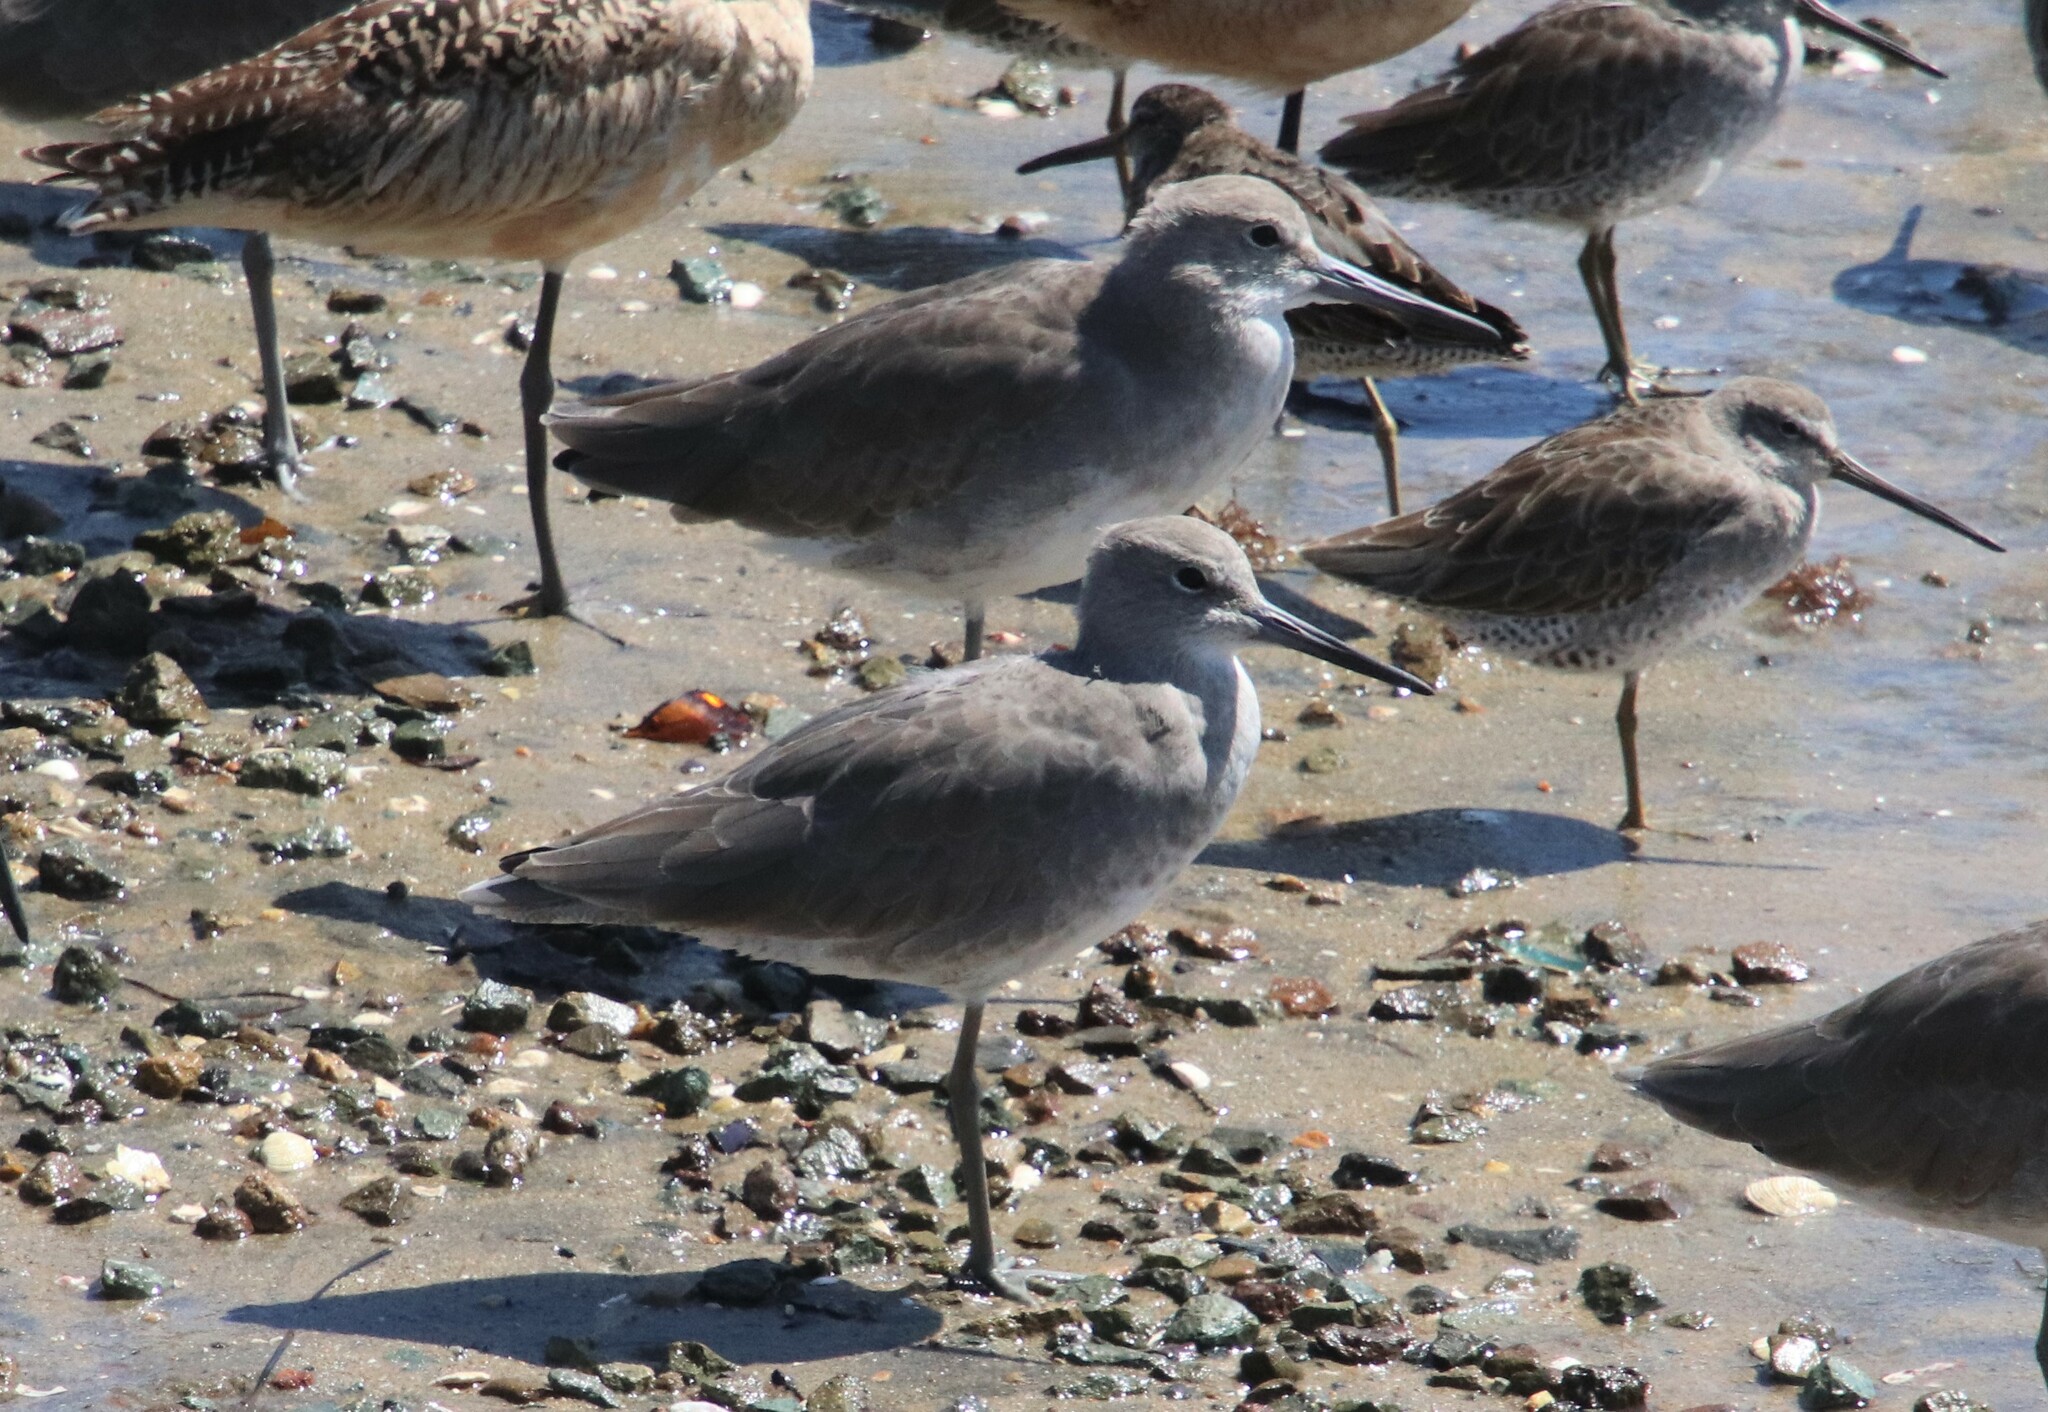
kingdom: Animalia
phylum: Chordata
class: Aves
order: Charadriiformes
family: Scolopacidae
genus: Tringa
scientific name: Tringa semipalmata
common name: Willet
